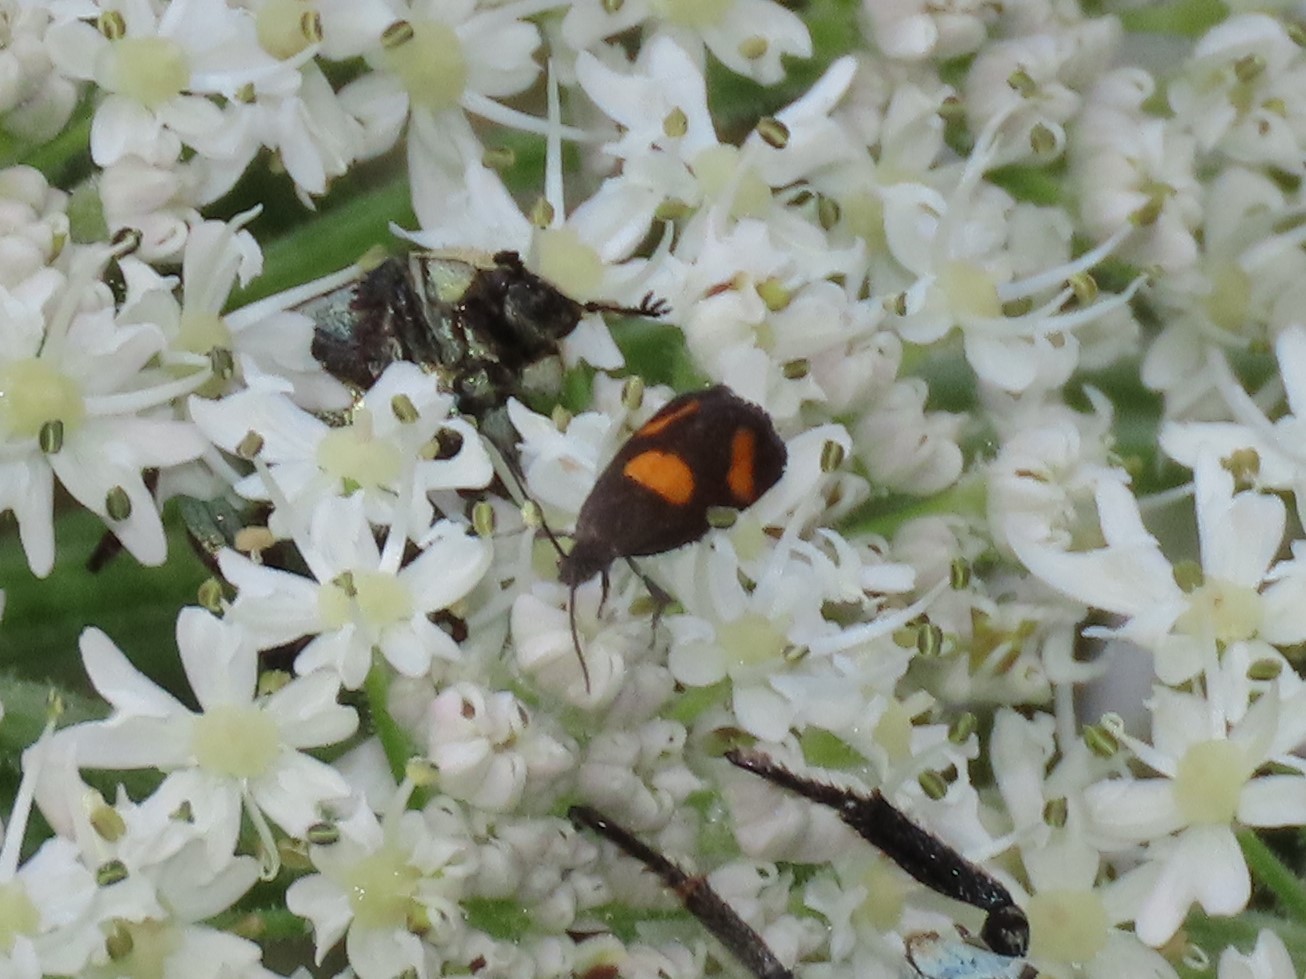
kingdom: Animalia
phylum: Arthropoda
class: Insecta
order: Lepidoptera
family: Tortricidae
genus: Pammene
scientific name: Pammene aurana
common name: Orange-spot piercer
